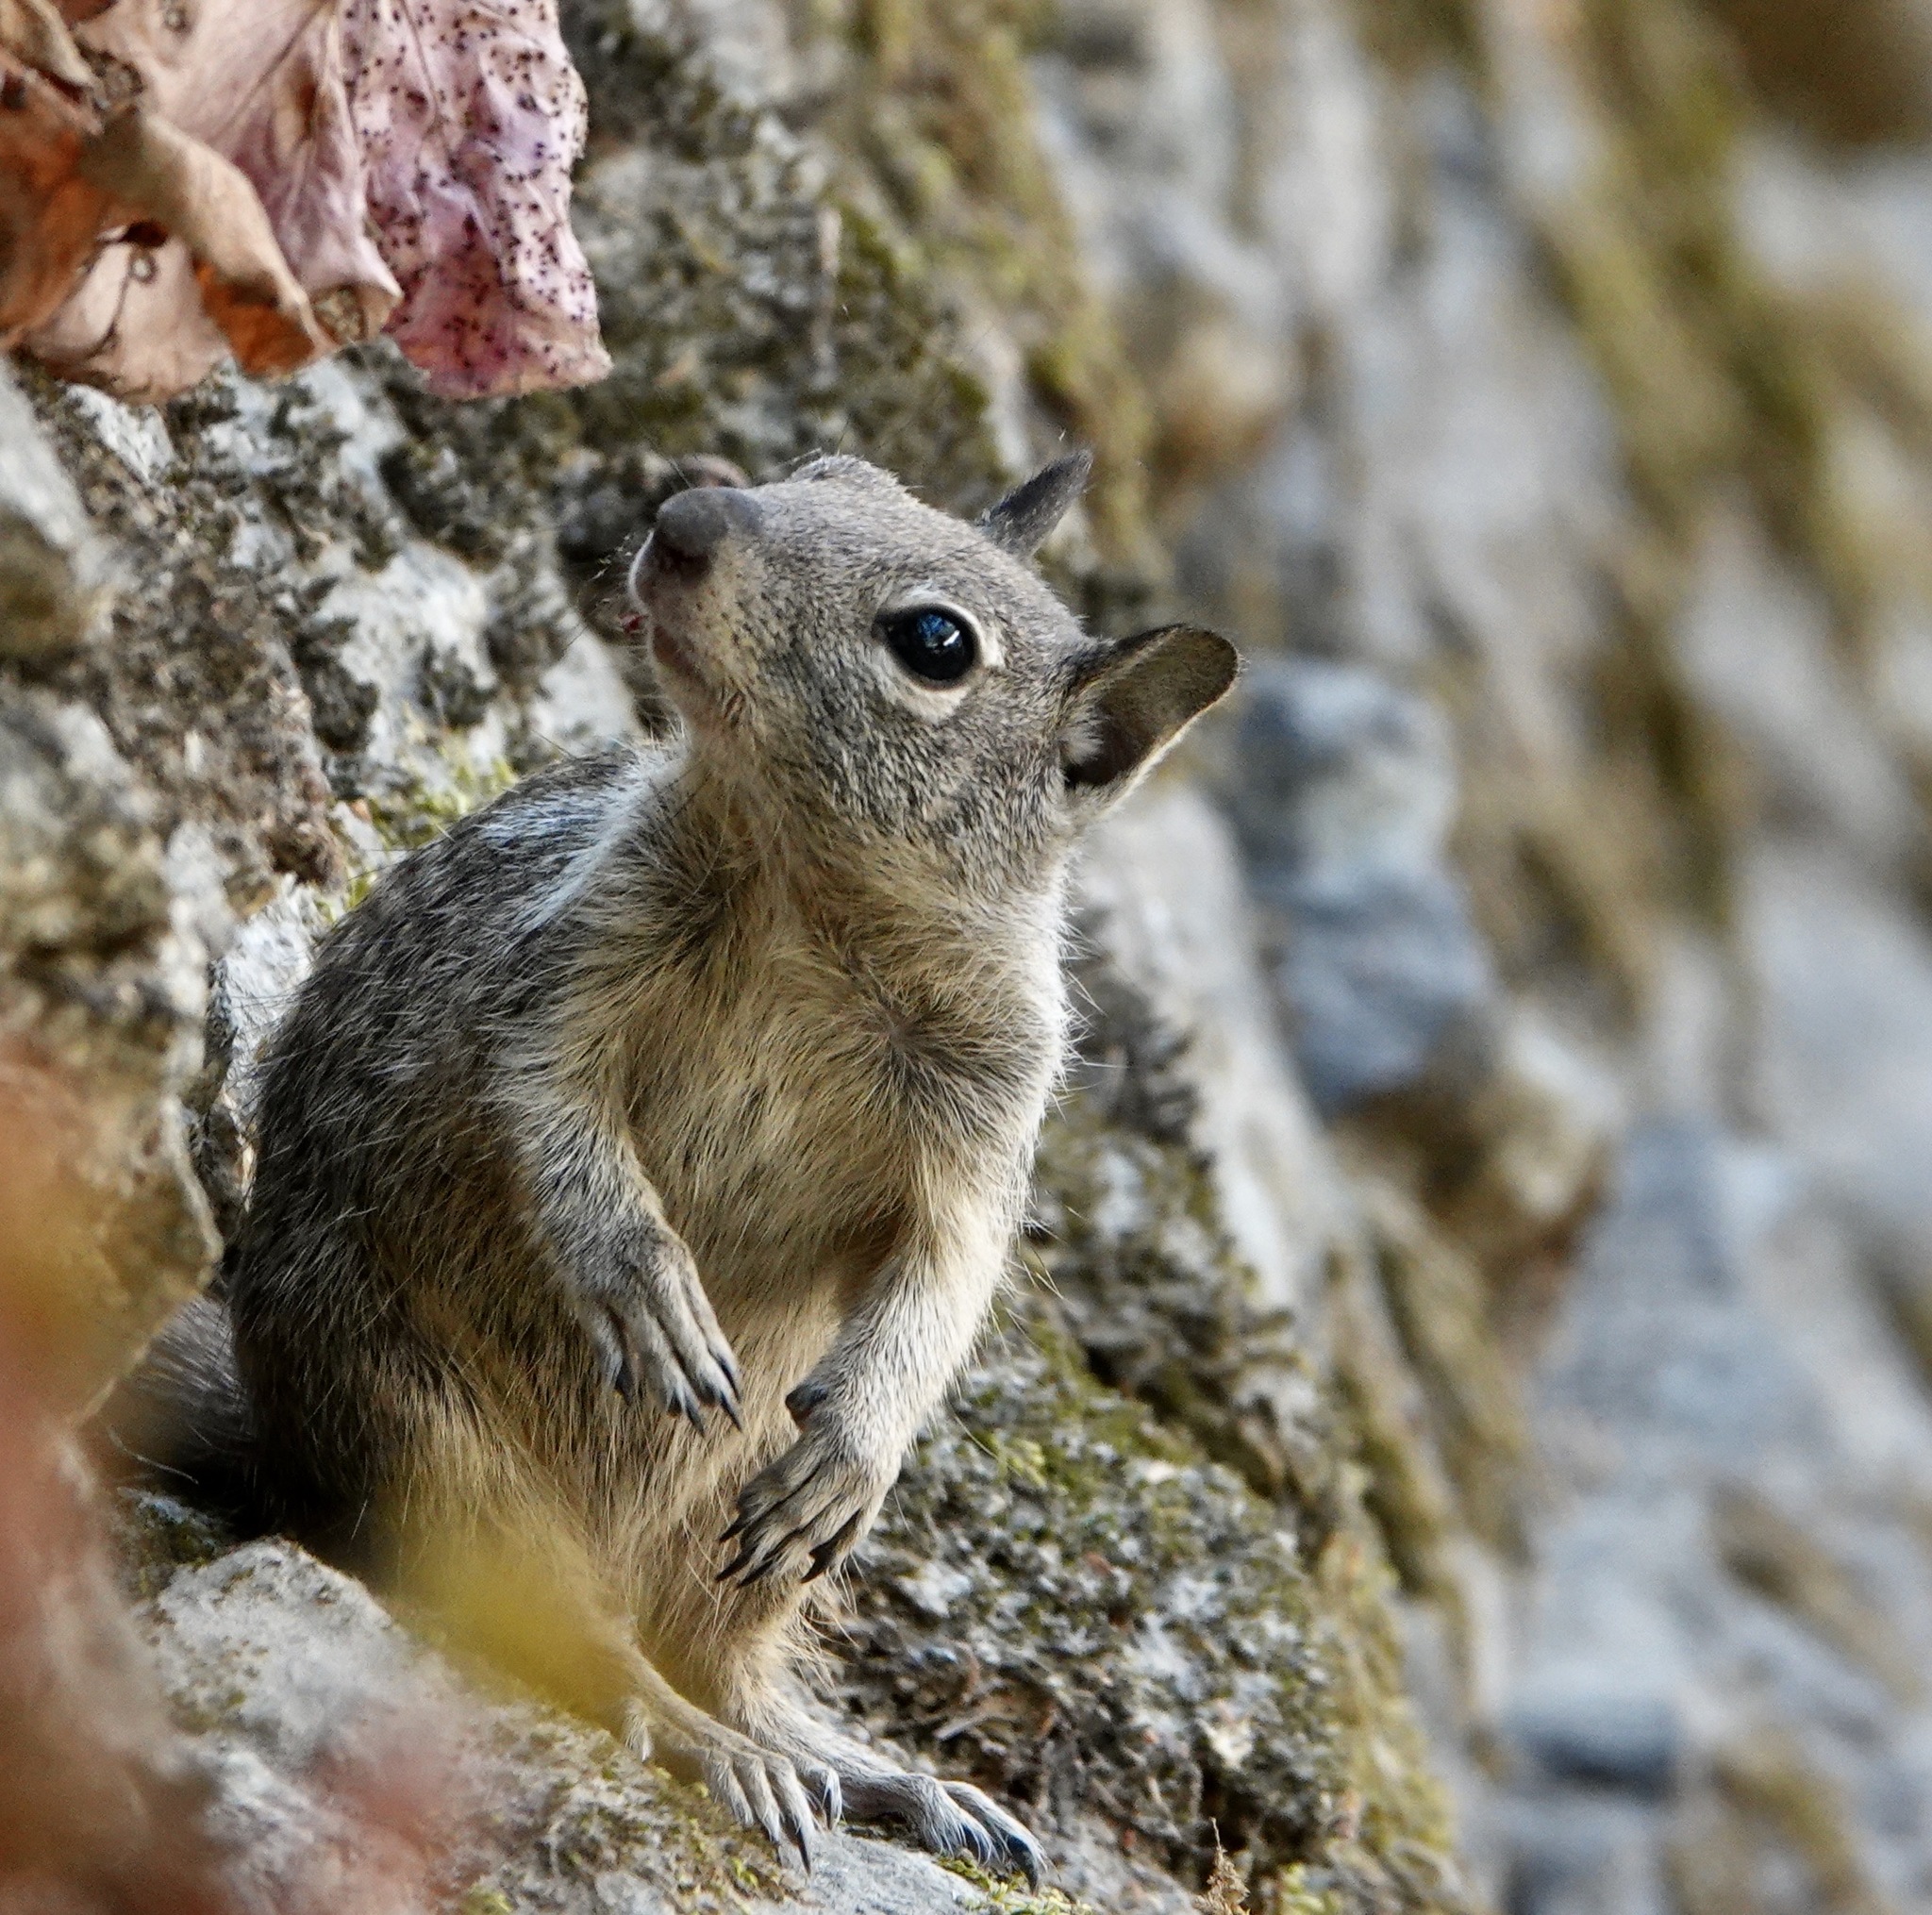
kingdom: Animalia
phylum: Chordata
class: Mammalia
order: Rodentia
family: Sciuridae
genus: Otospermophilus
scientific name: Otospermophilus beecheyi
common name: California ground squirrel
